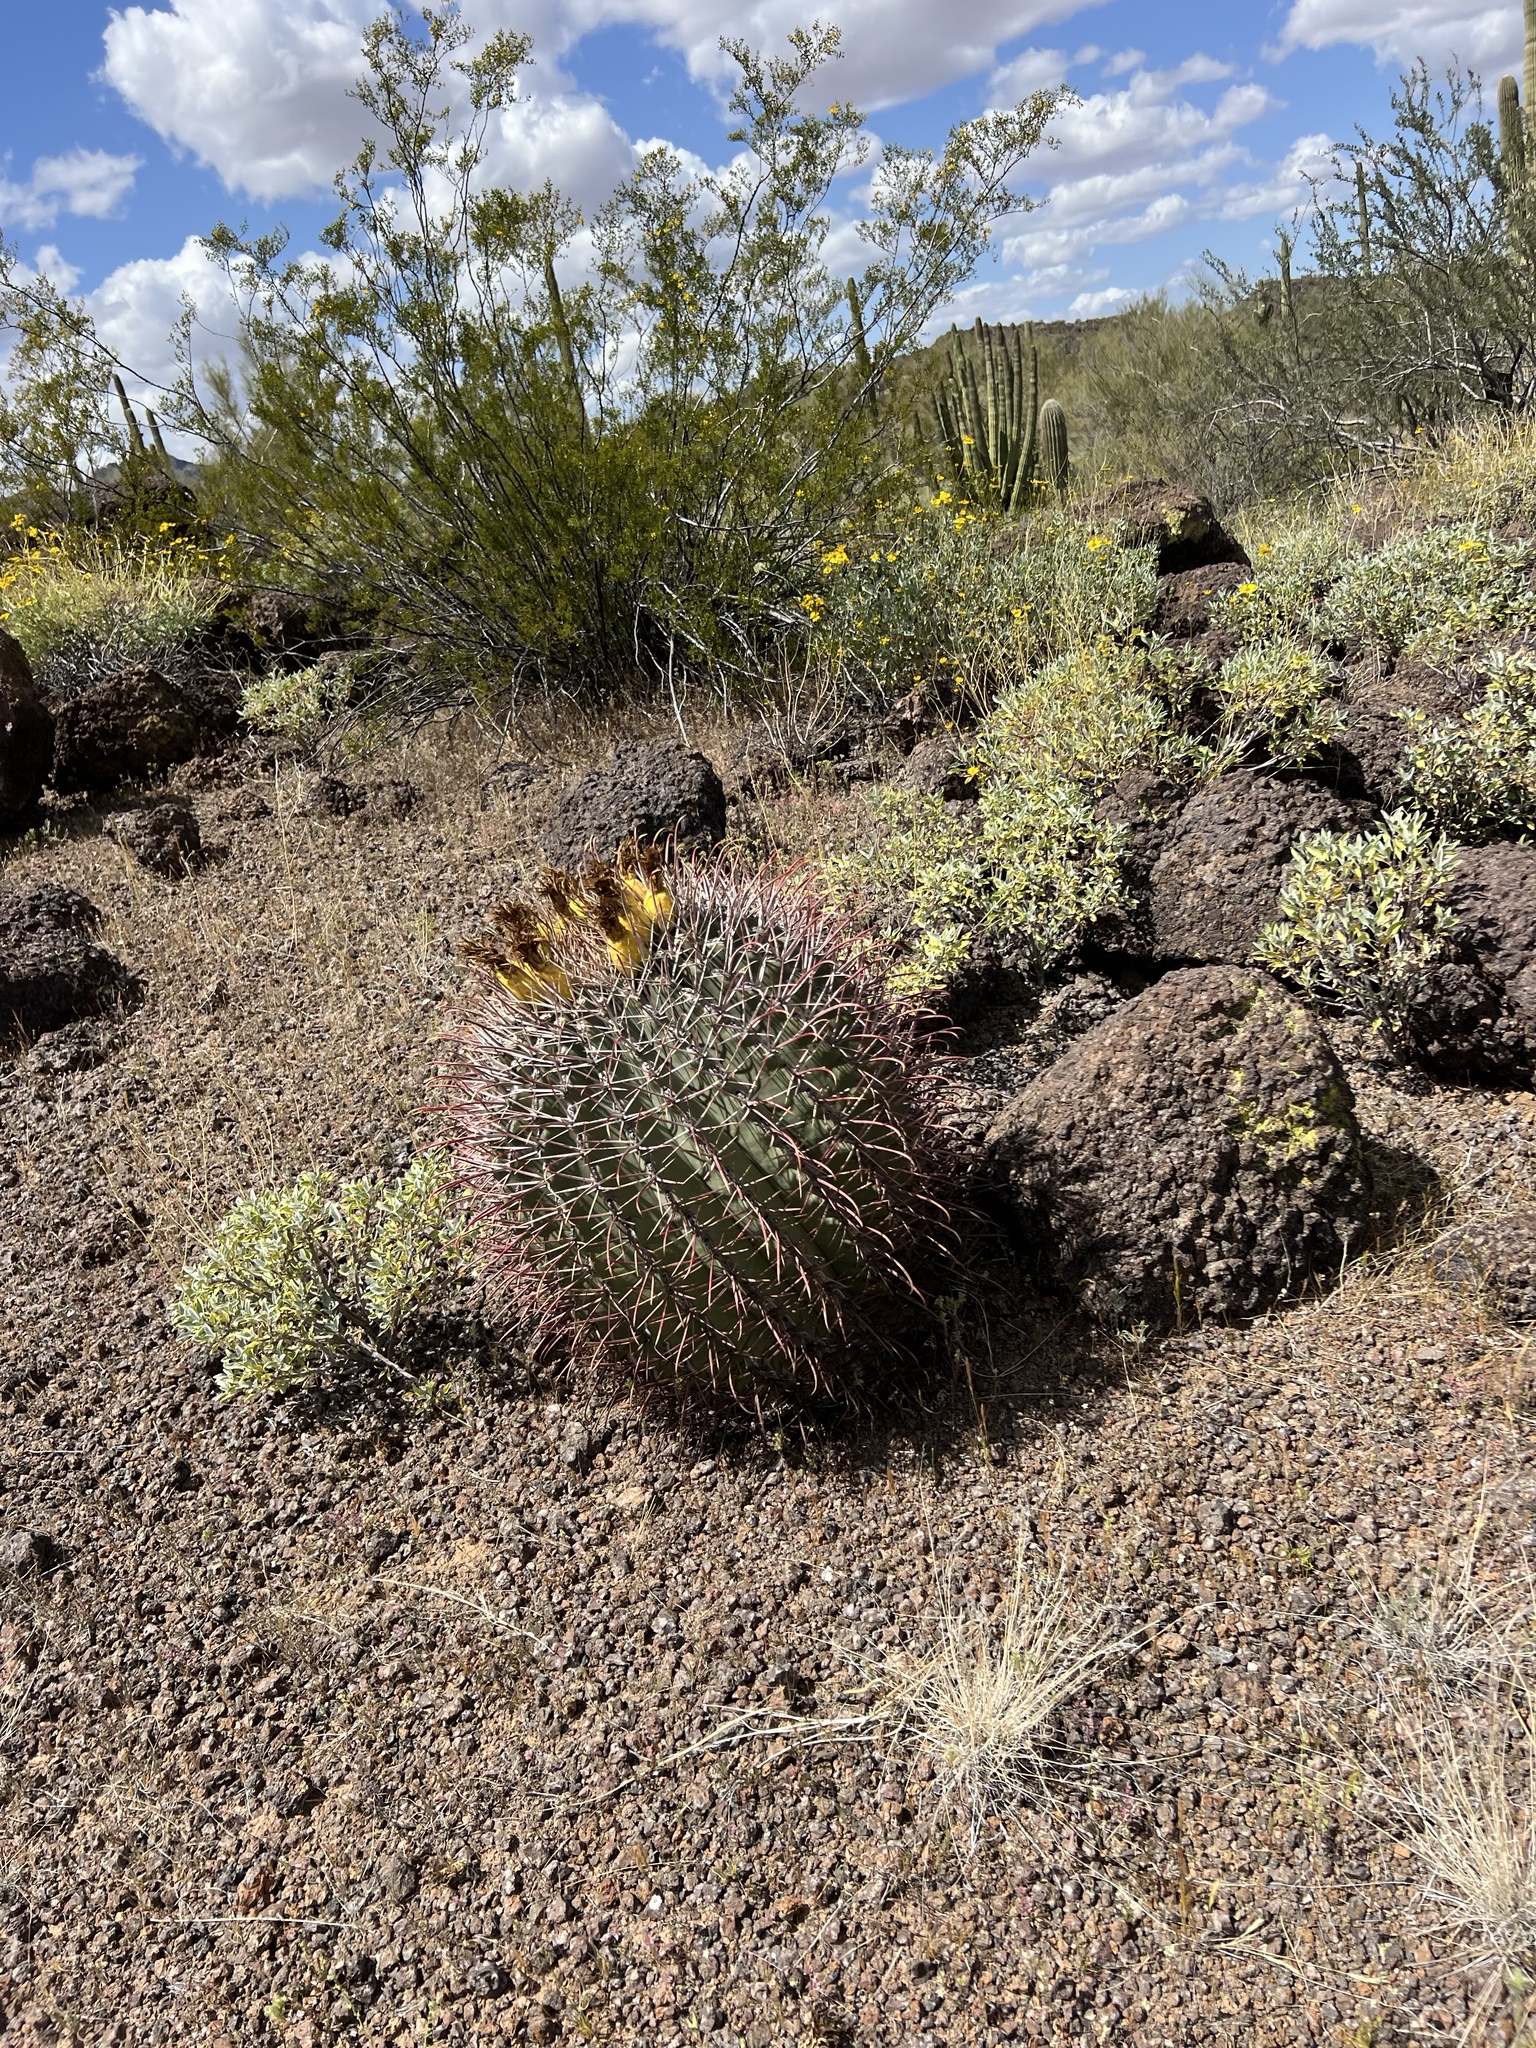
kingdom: Plantae
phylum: Tracheophyta
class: Magnoliopsida
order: Caryophyllales
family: Cactaceae
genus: Ferocactus
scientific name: Ferocactus emoryi
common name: Emory's barrel cactus
